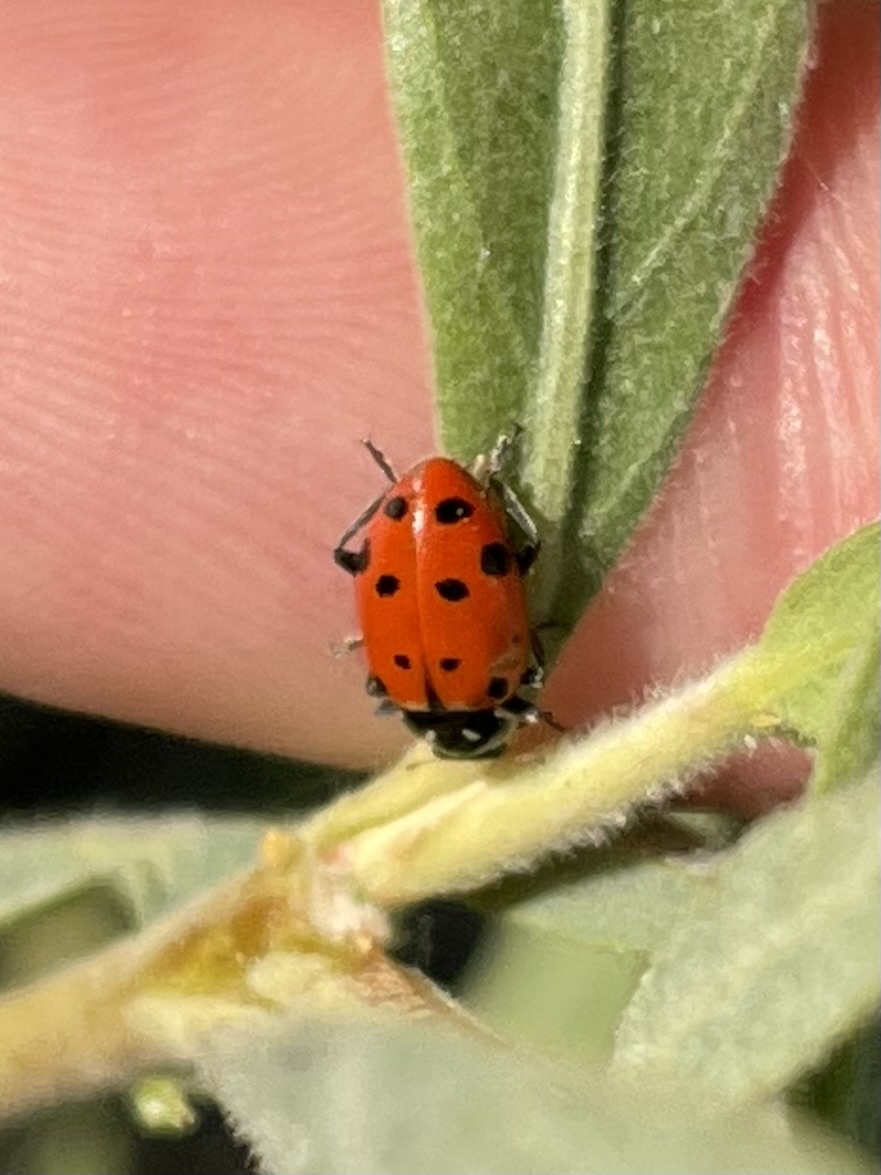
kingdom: Animalia
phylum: Arthropoda
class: Insecta
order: Coleoptera
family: Coccinellidae
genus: Hippodamia
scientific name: Hippodamia convergens
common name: Convergent lady beetle
